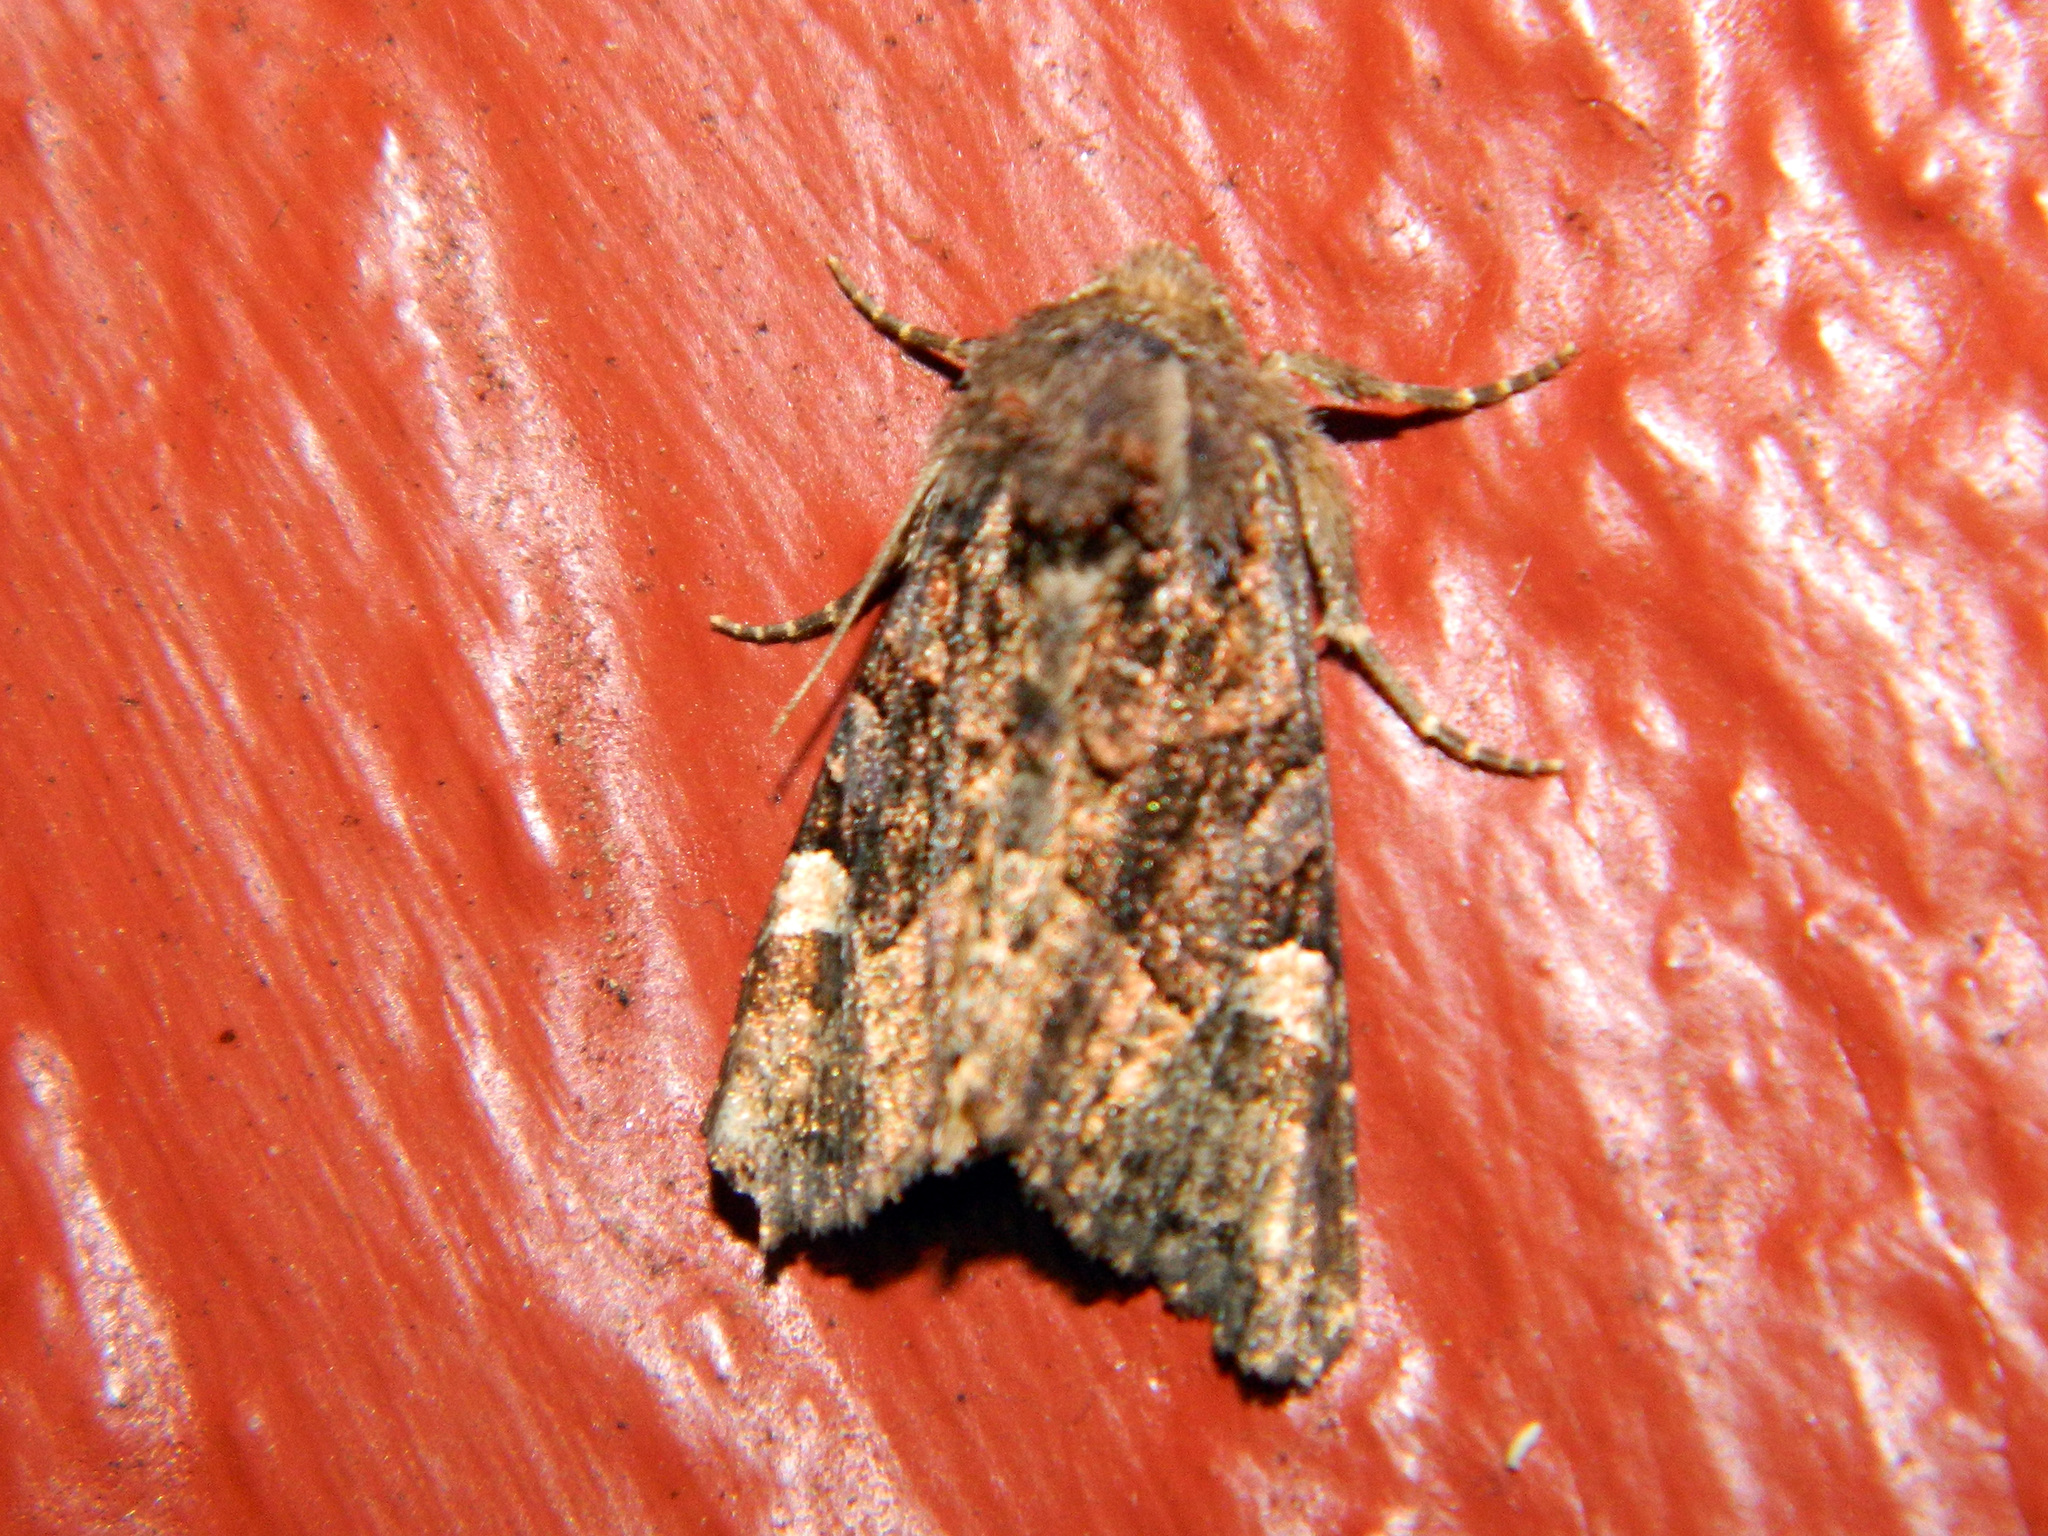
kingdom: Animalia
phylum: Arthropoda
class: Insecta
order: Lepidoptera
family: Noctuidae
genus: Euplexia
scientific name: Euplexia benesimilis
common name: American angle shades
